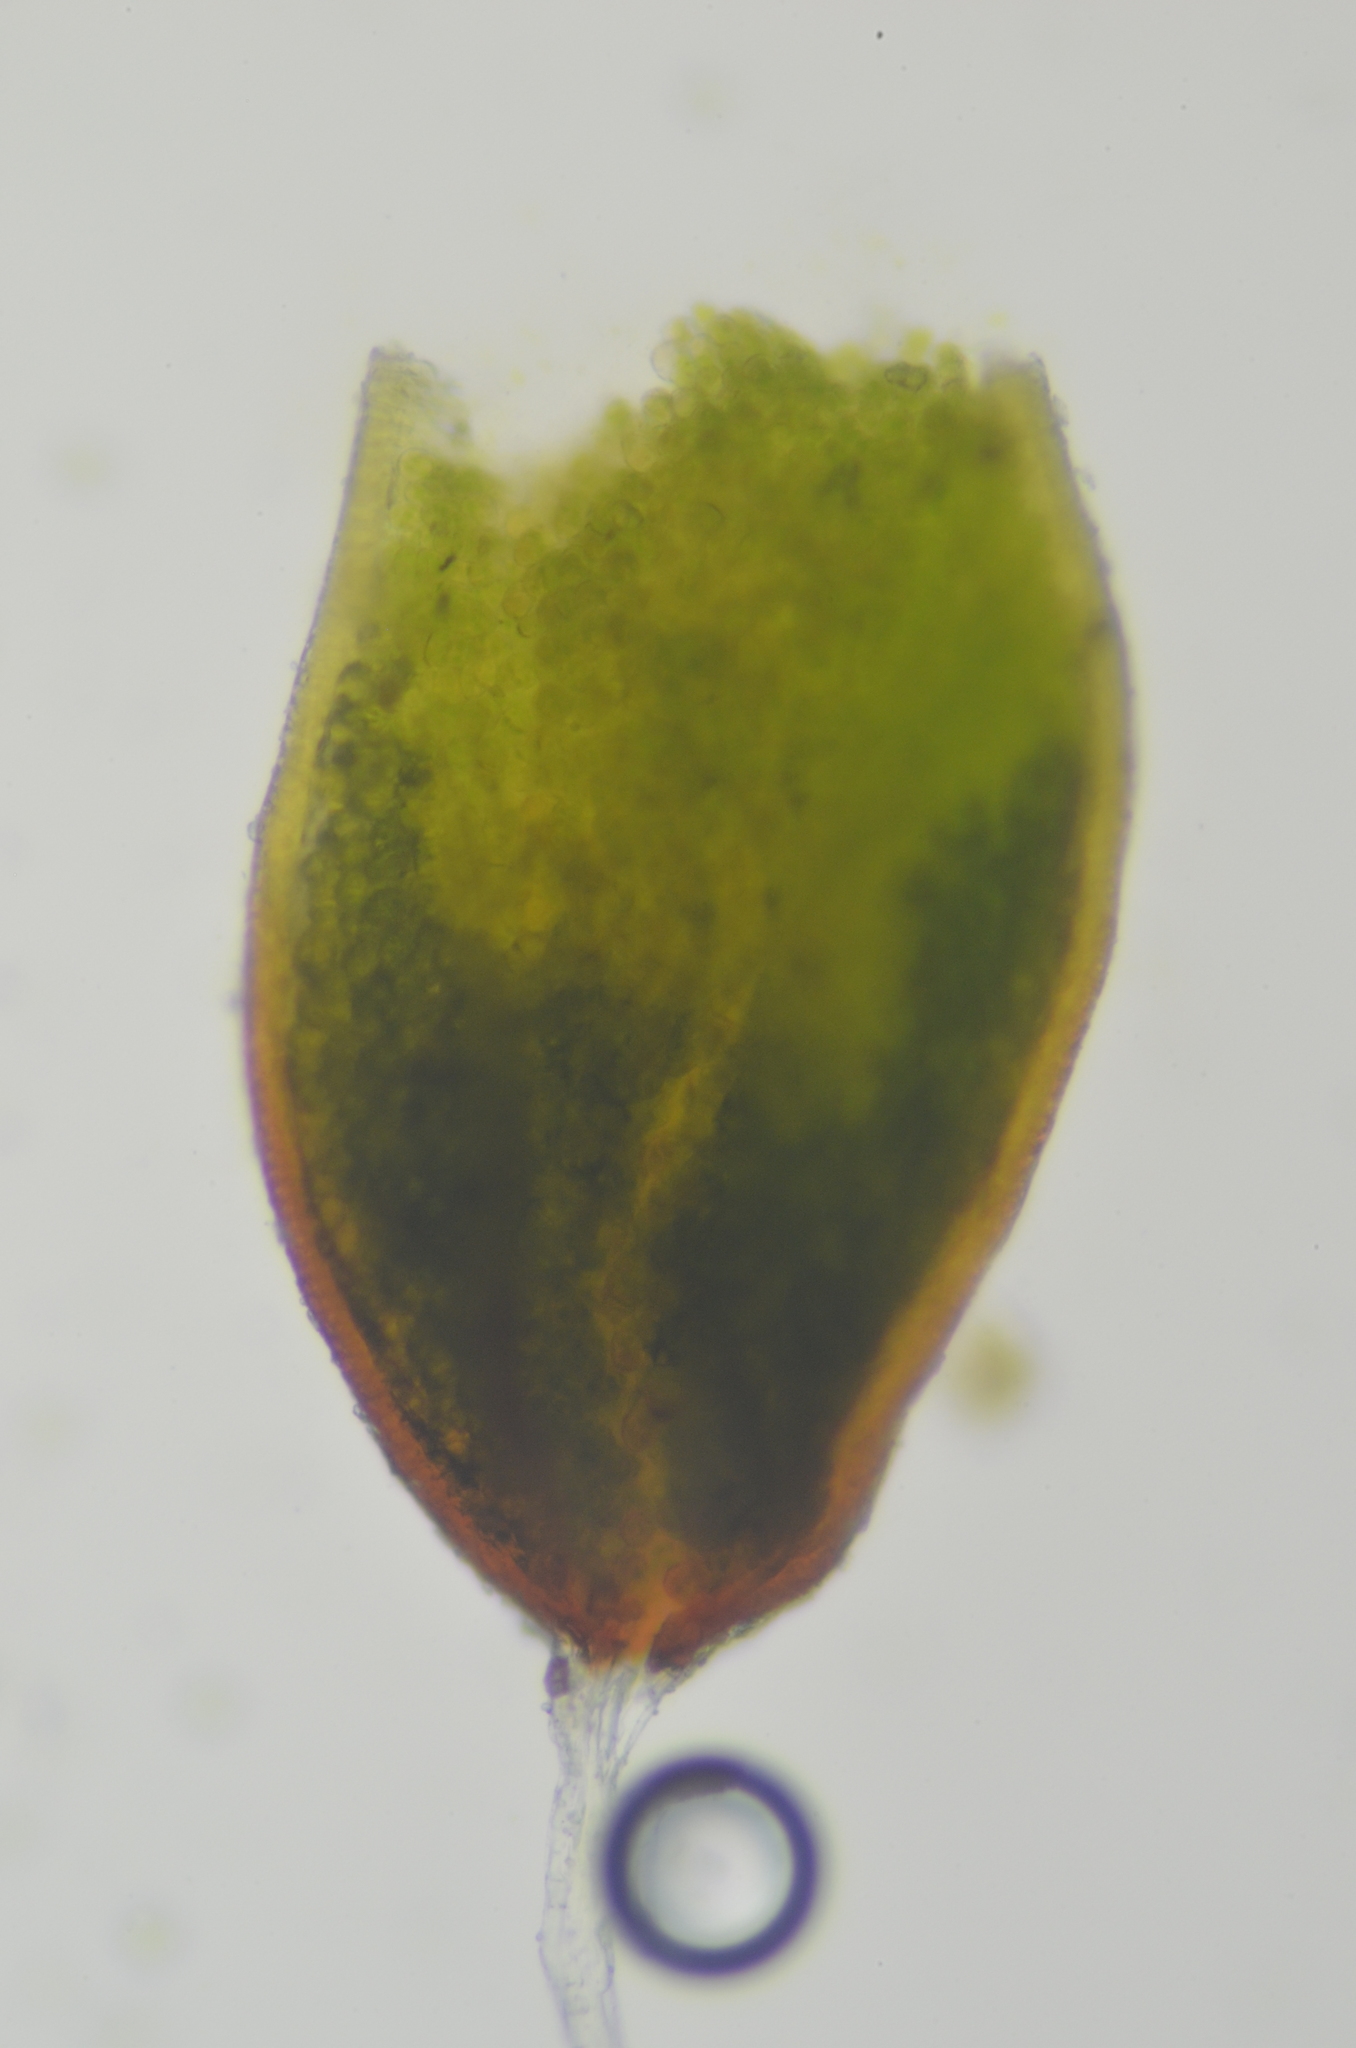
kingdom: Plantae
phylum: Bryophyta
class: Bryopsida
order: Pottiales
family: Pottiaceae
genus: Aloina
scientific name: Aloina bifrons
